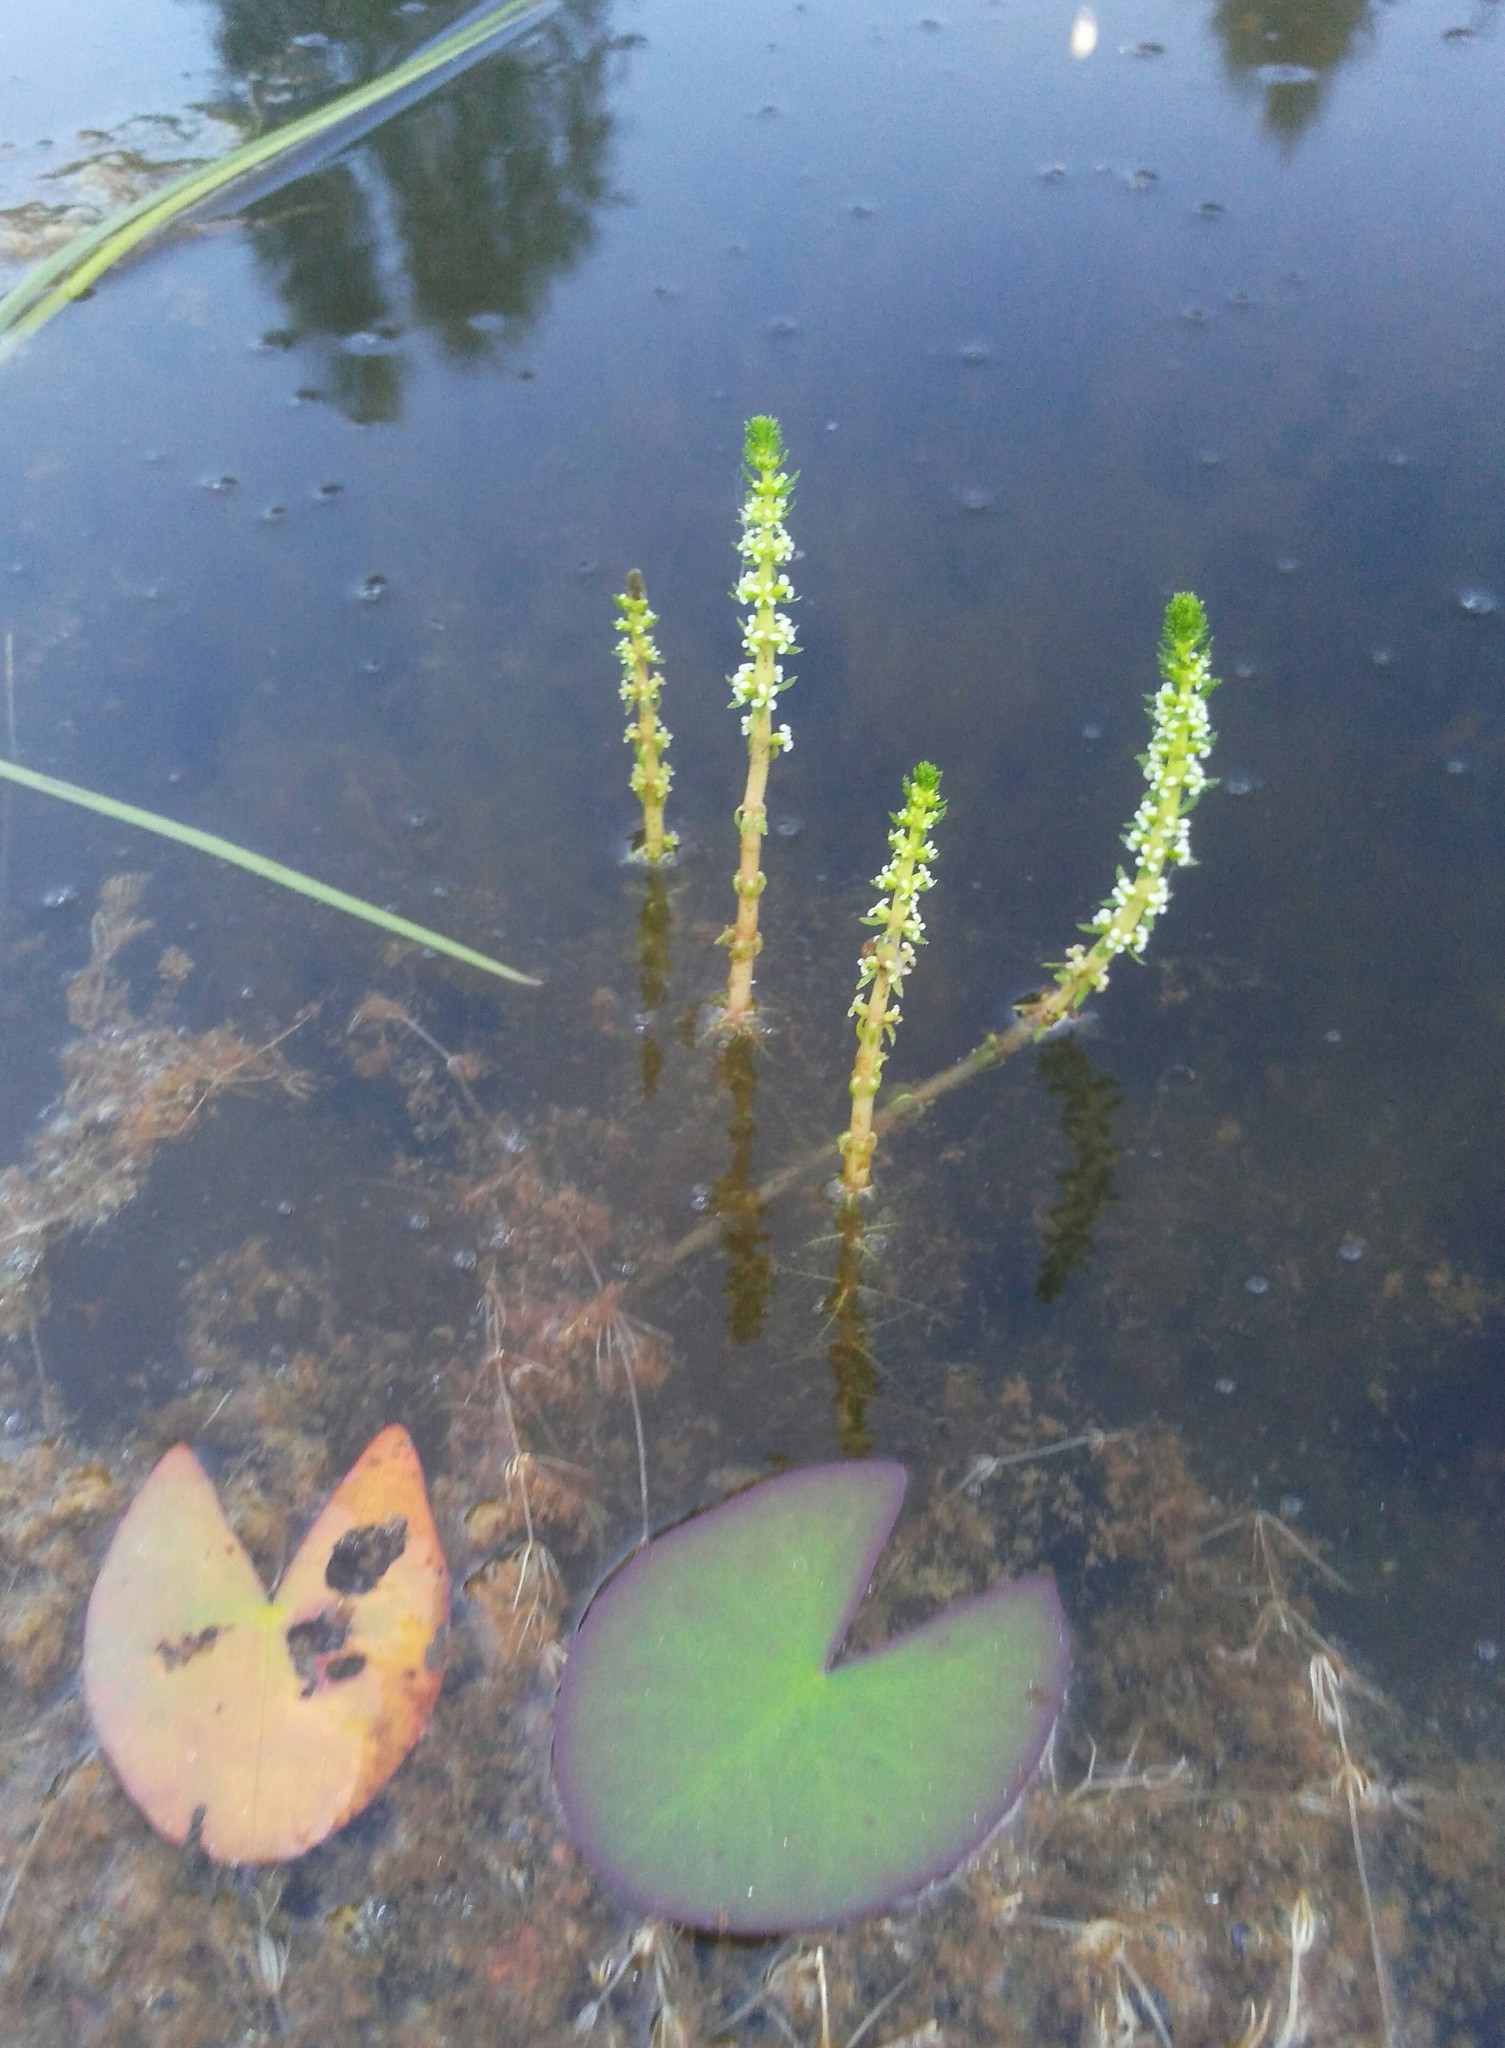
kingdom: Plantae
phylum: Tracheophyta
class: Magnoliopsida
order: Saxifragales
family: Haloragaceae
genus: Myriophyllum
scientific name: Myriophyllum verticillatum
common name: Whorled water-milfoil
